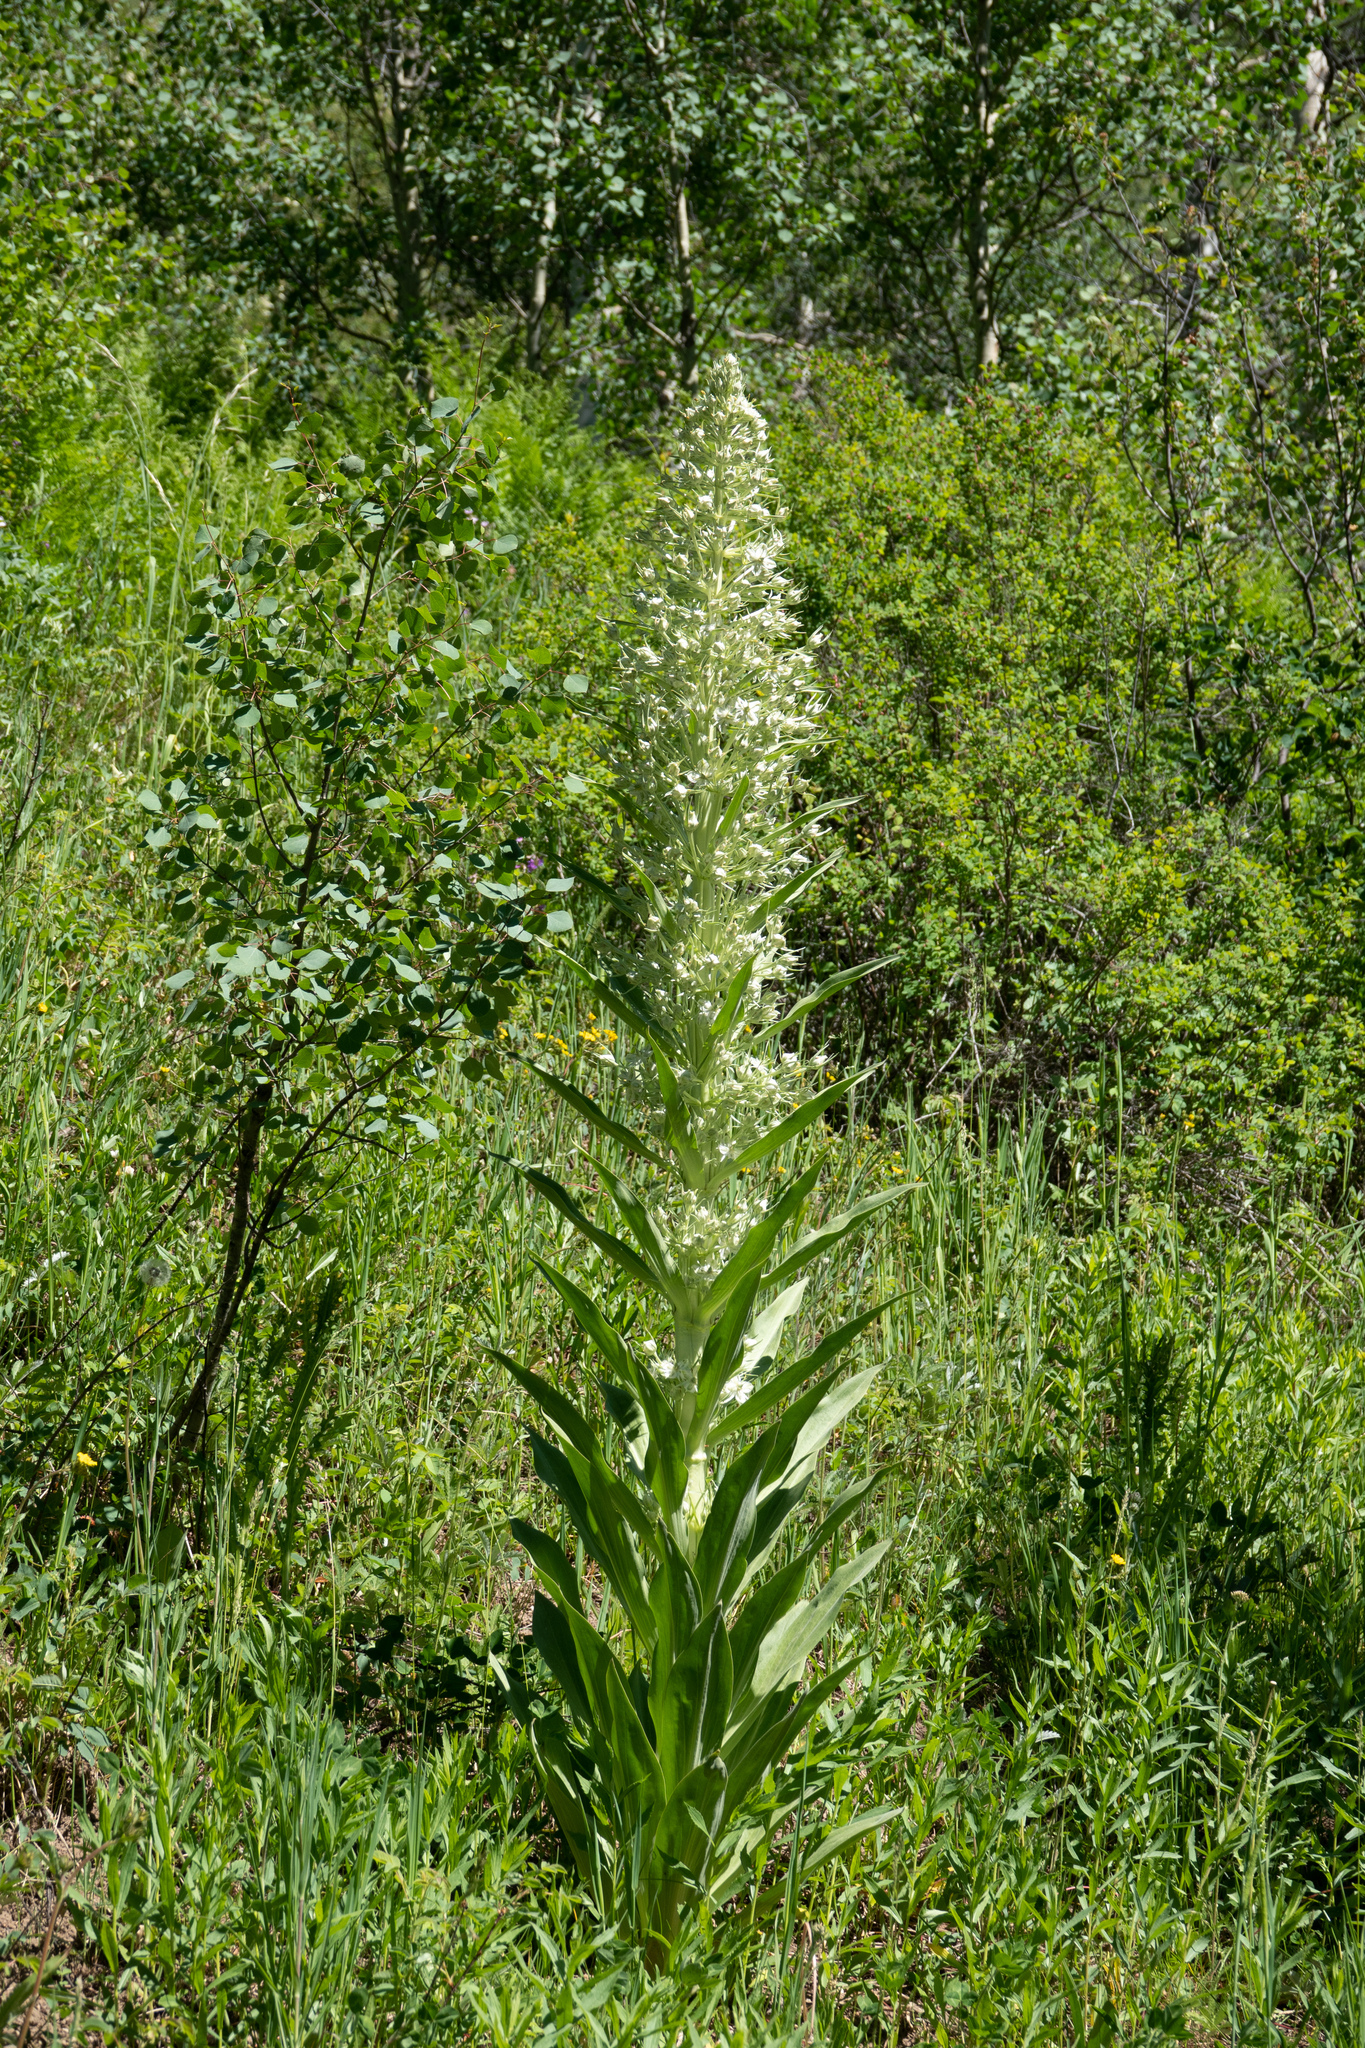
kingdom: Plantae
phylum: Tracheophyta
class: Magnoliopsida
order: Gentianales
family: Gentianaceae
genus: Frasera
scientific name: Frasera speciosa
